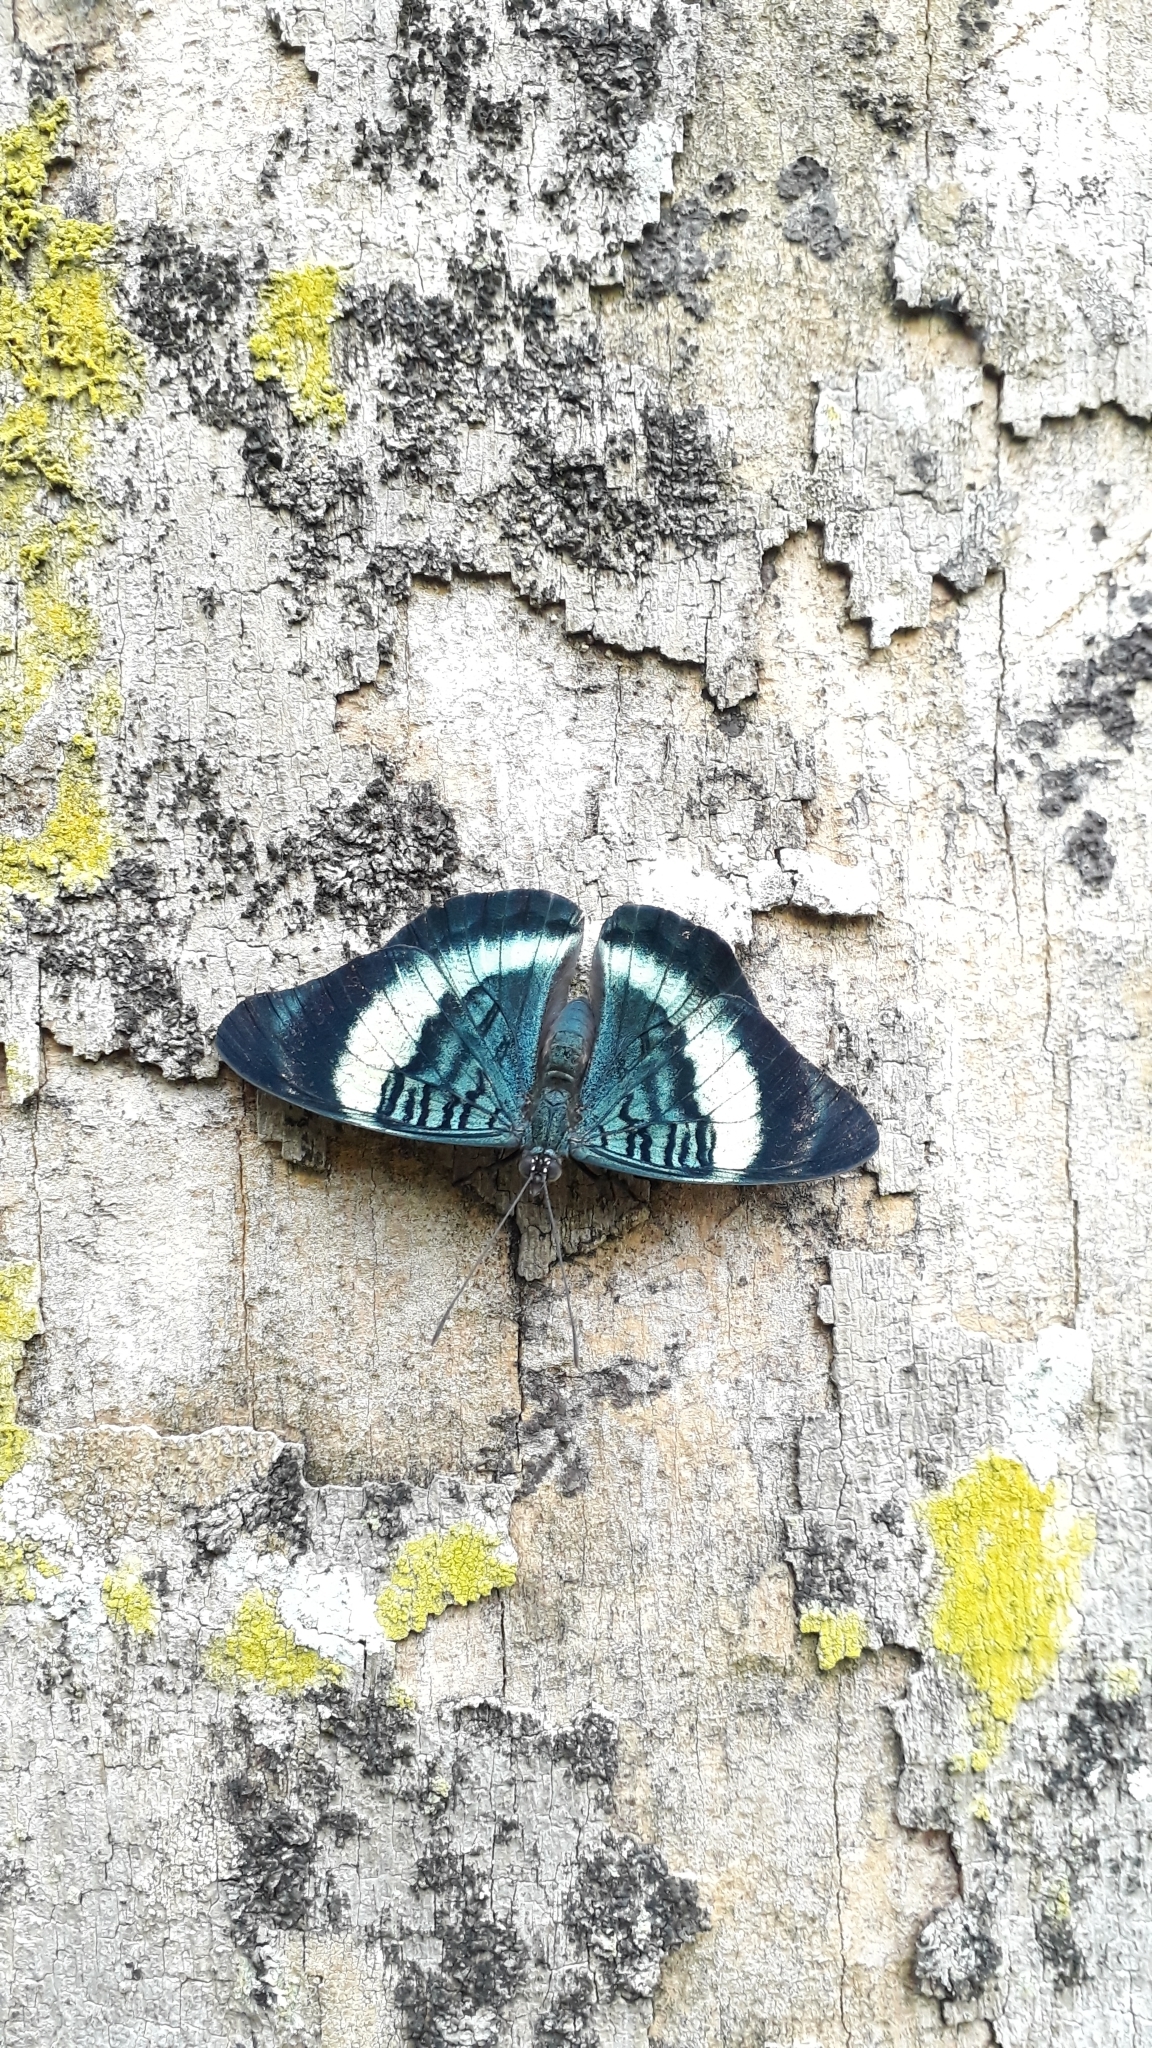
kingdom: Animalia
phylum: Arthropoda
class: Insecta
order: Lepidoptera
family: Nymphalidae
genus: Panacea
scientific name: Panacea prola
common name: Red flasher
